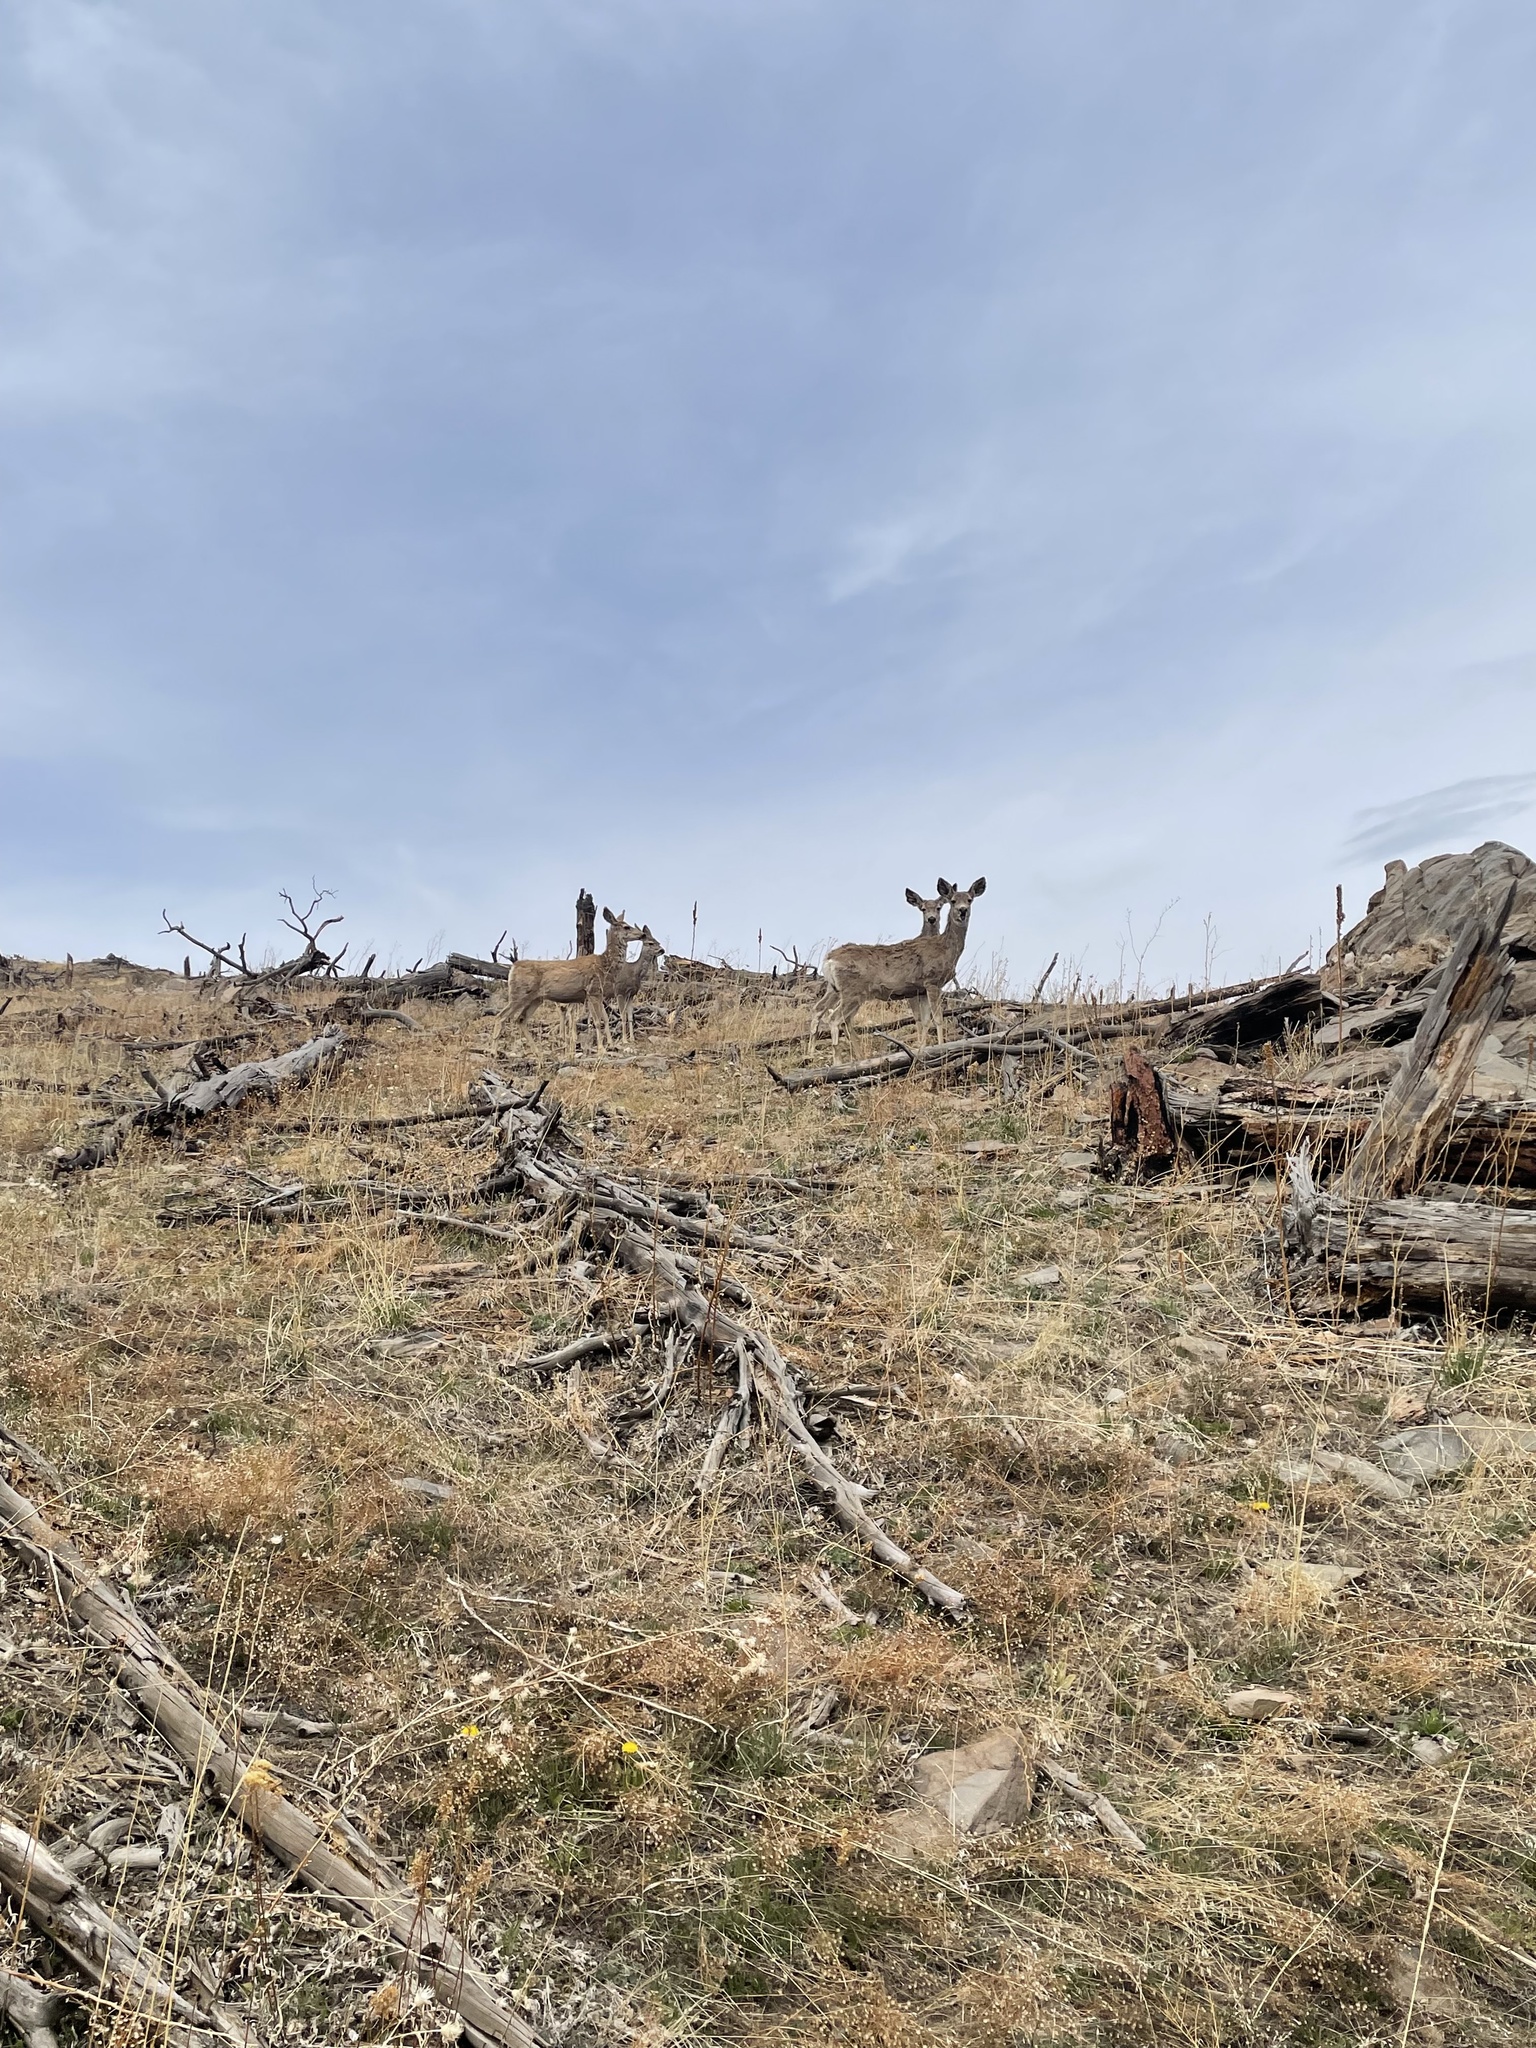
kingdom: Animalia
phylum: Chordata
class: Mammalia
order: Artiodactyla
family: Cervidae
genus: Odocoileus
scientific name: Odocoileus hemionus
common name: Mule deer
